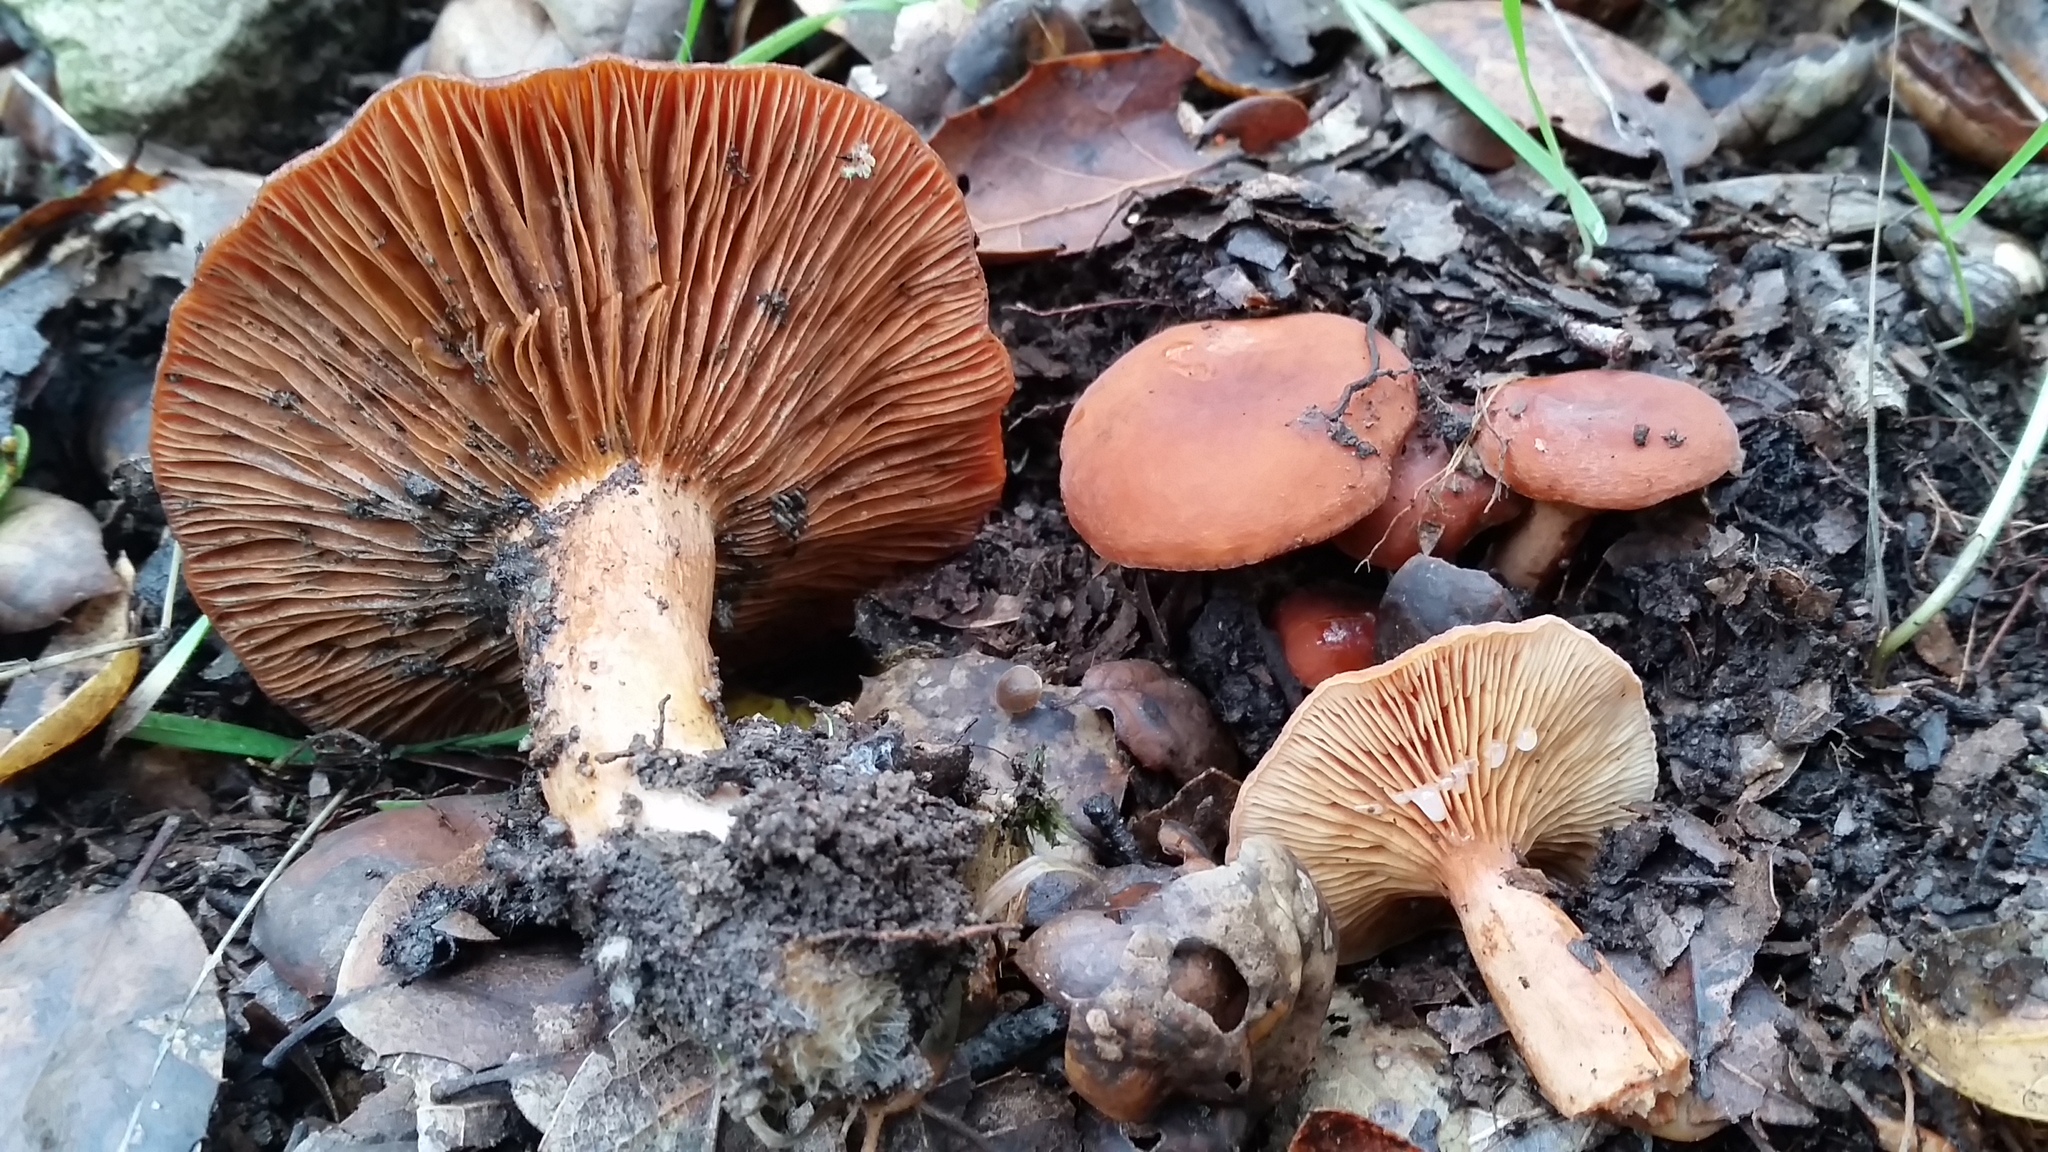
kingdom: Fungi
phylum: Basidiomycota
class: Agaricomycetes
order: Russulales
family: Russulaceae
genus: Lactarius
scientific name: Lactarius rufulus
